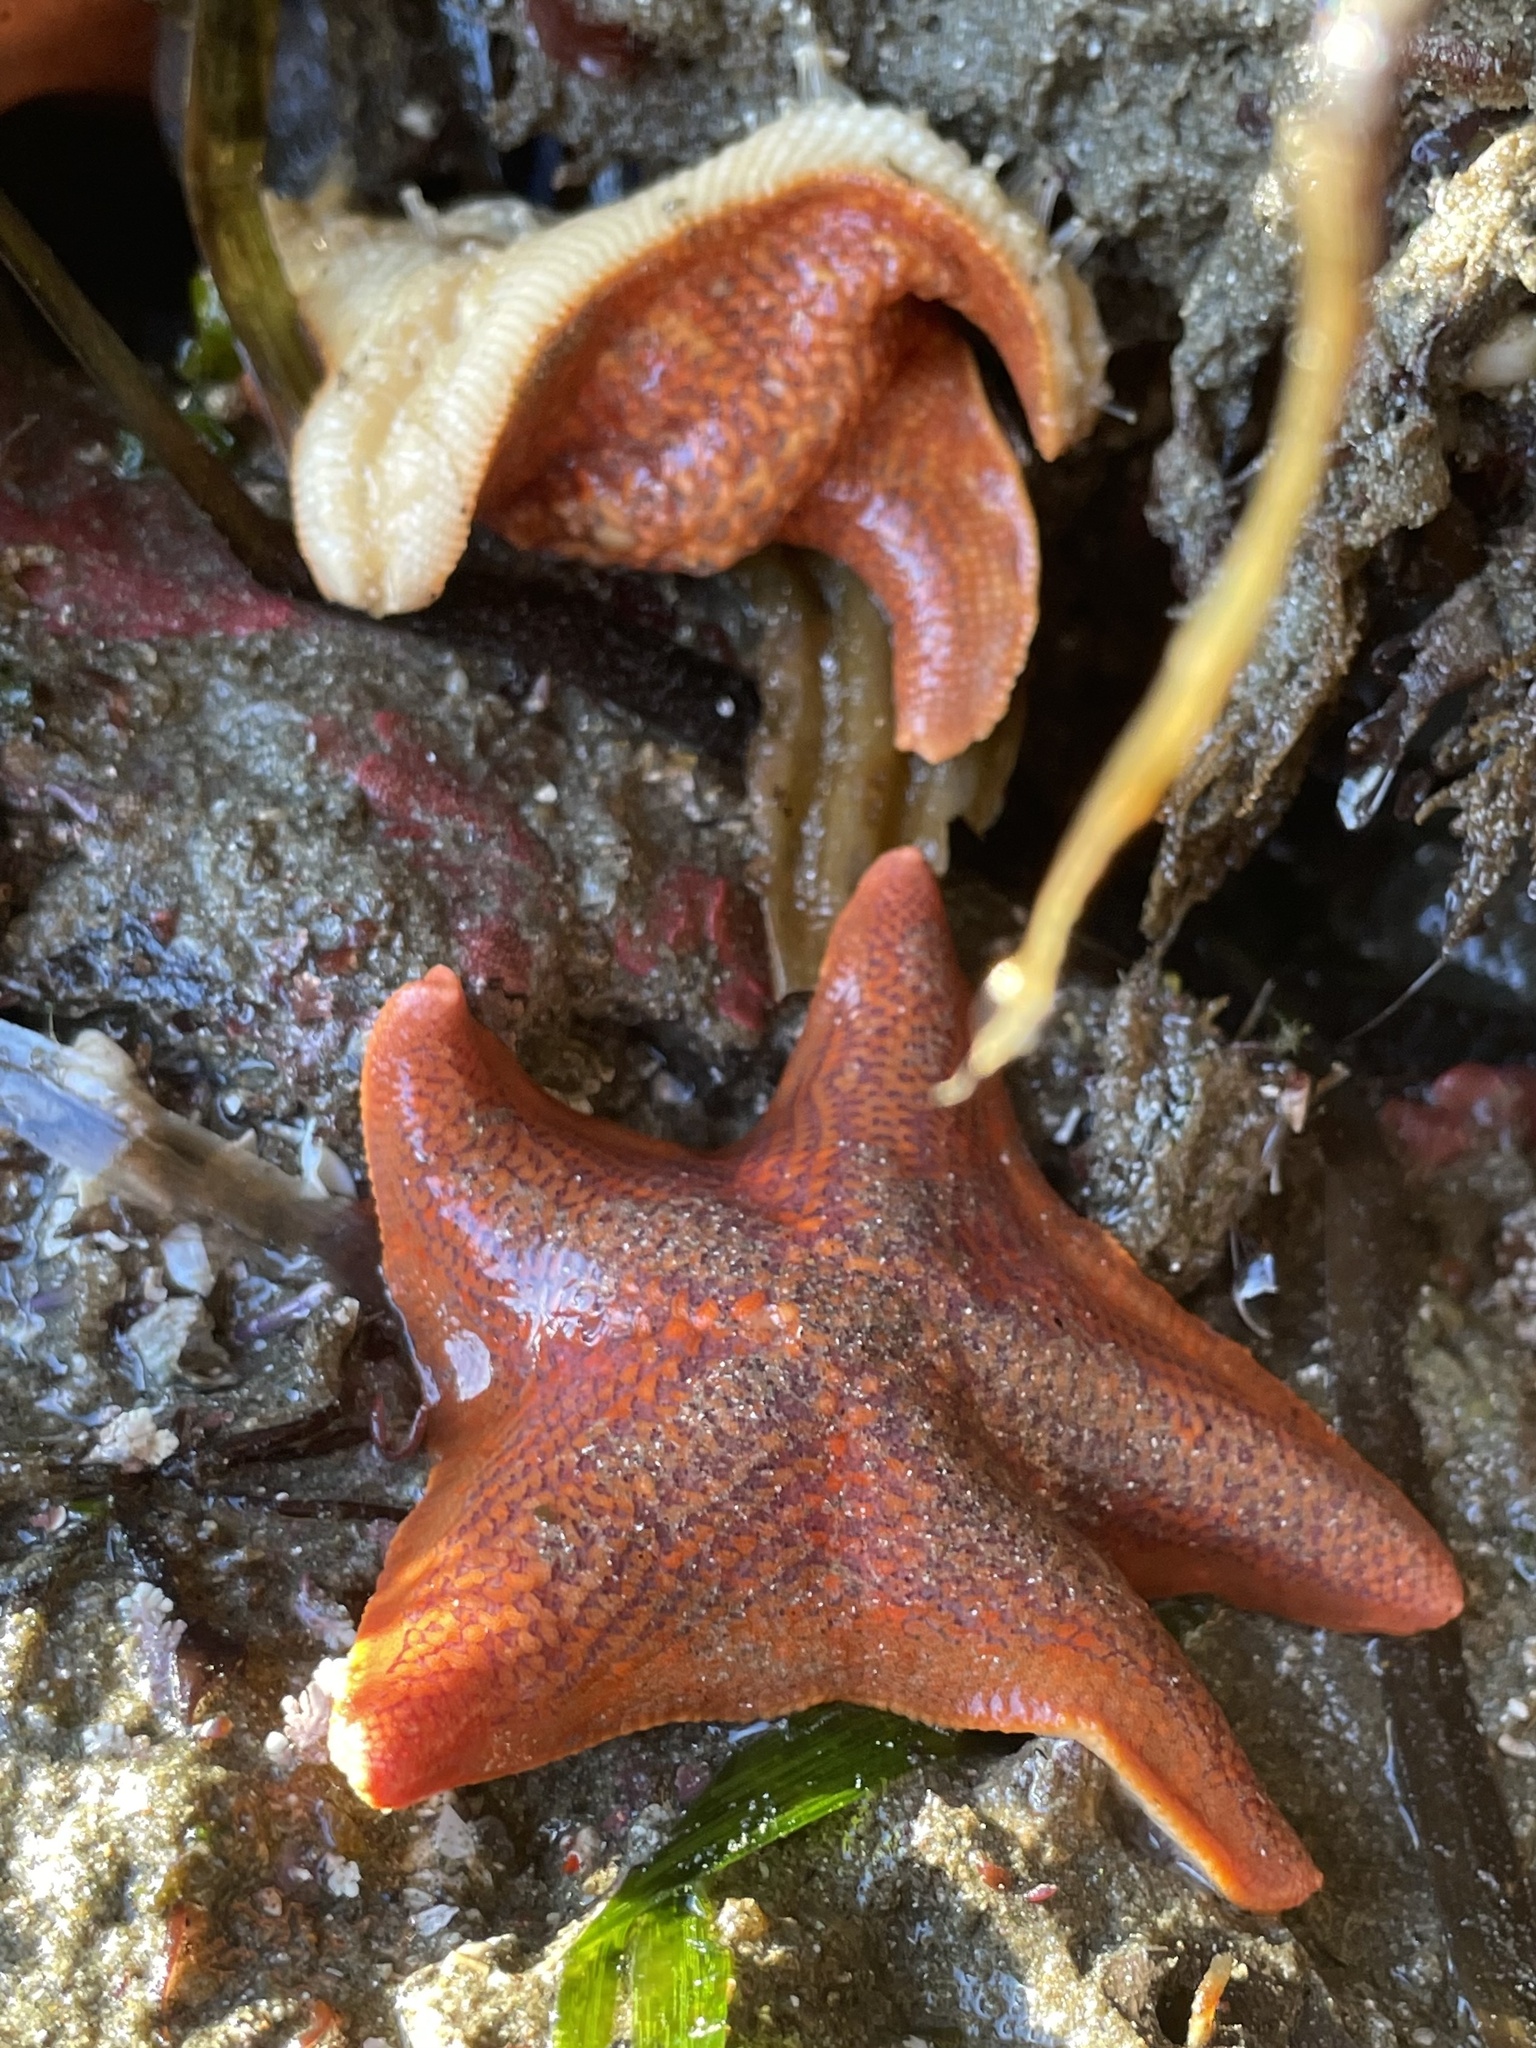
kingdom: Animalia
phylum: Echinodermata
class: Asteroidea
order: Valvatida
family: Asterinidae
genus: Patiria
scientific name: Patiria miniata
